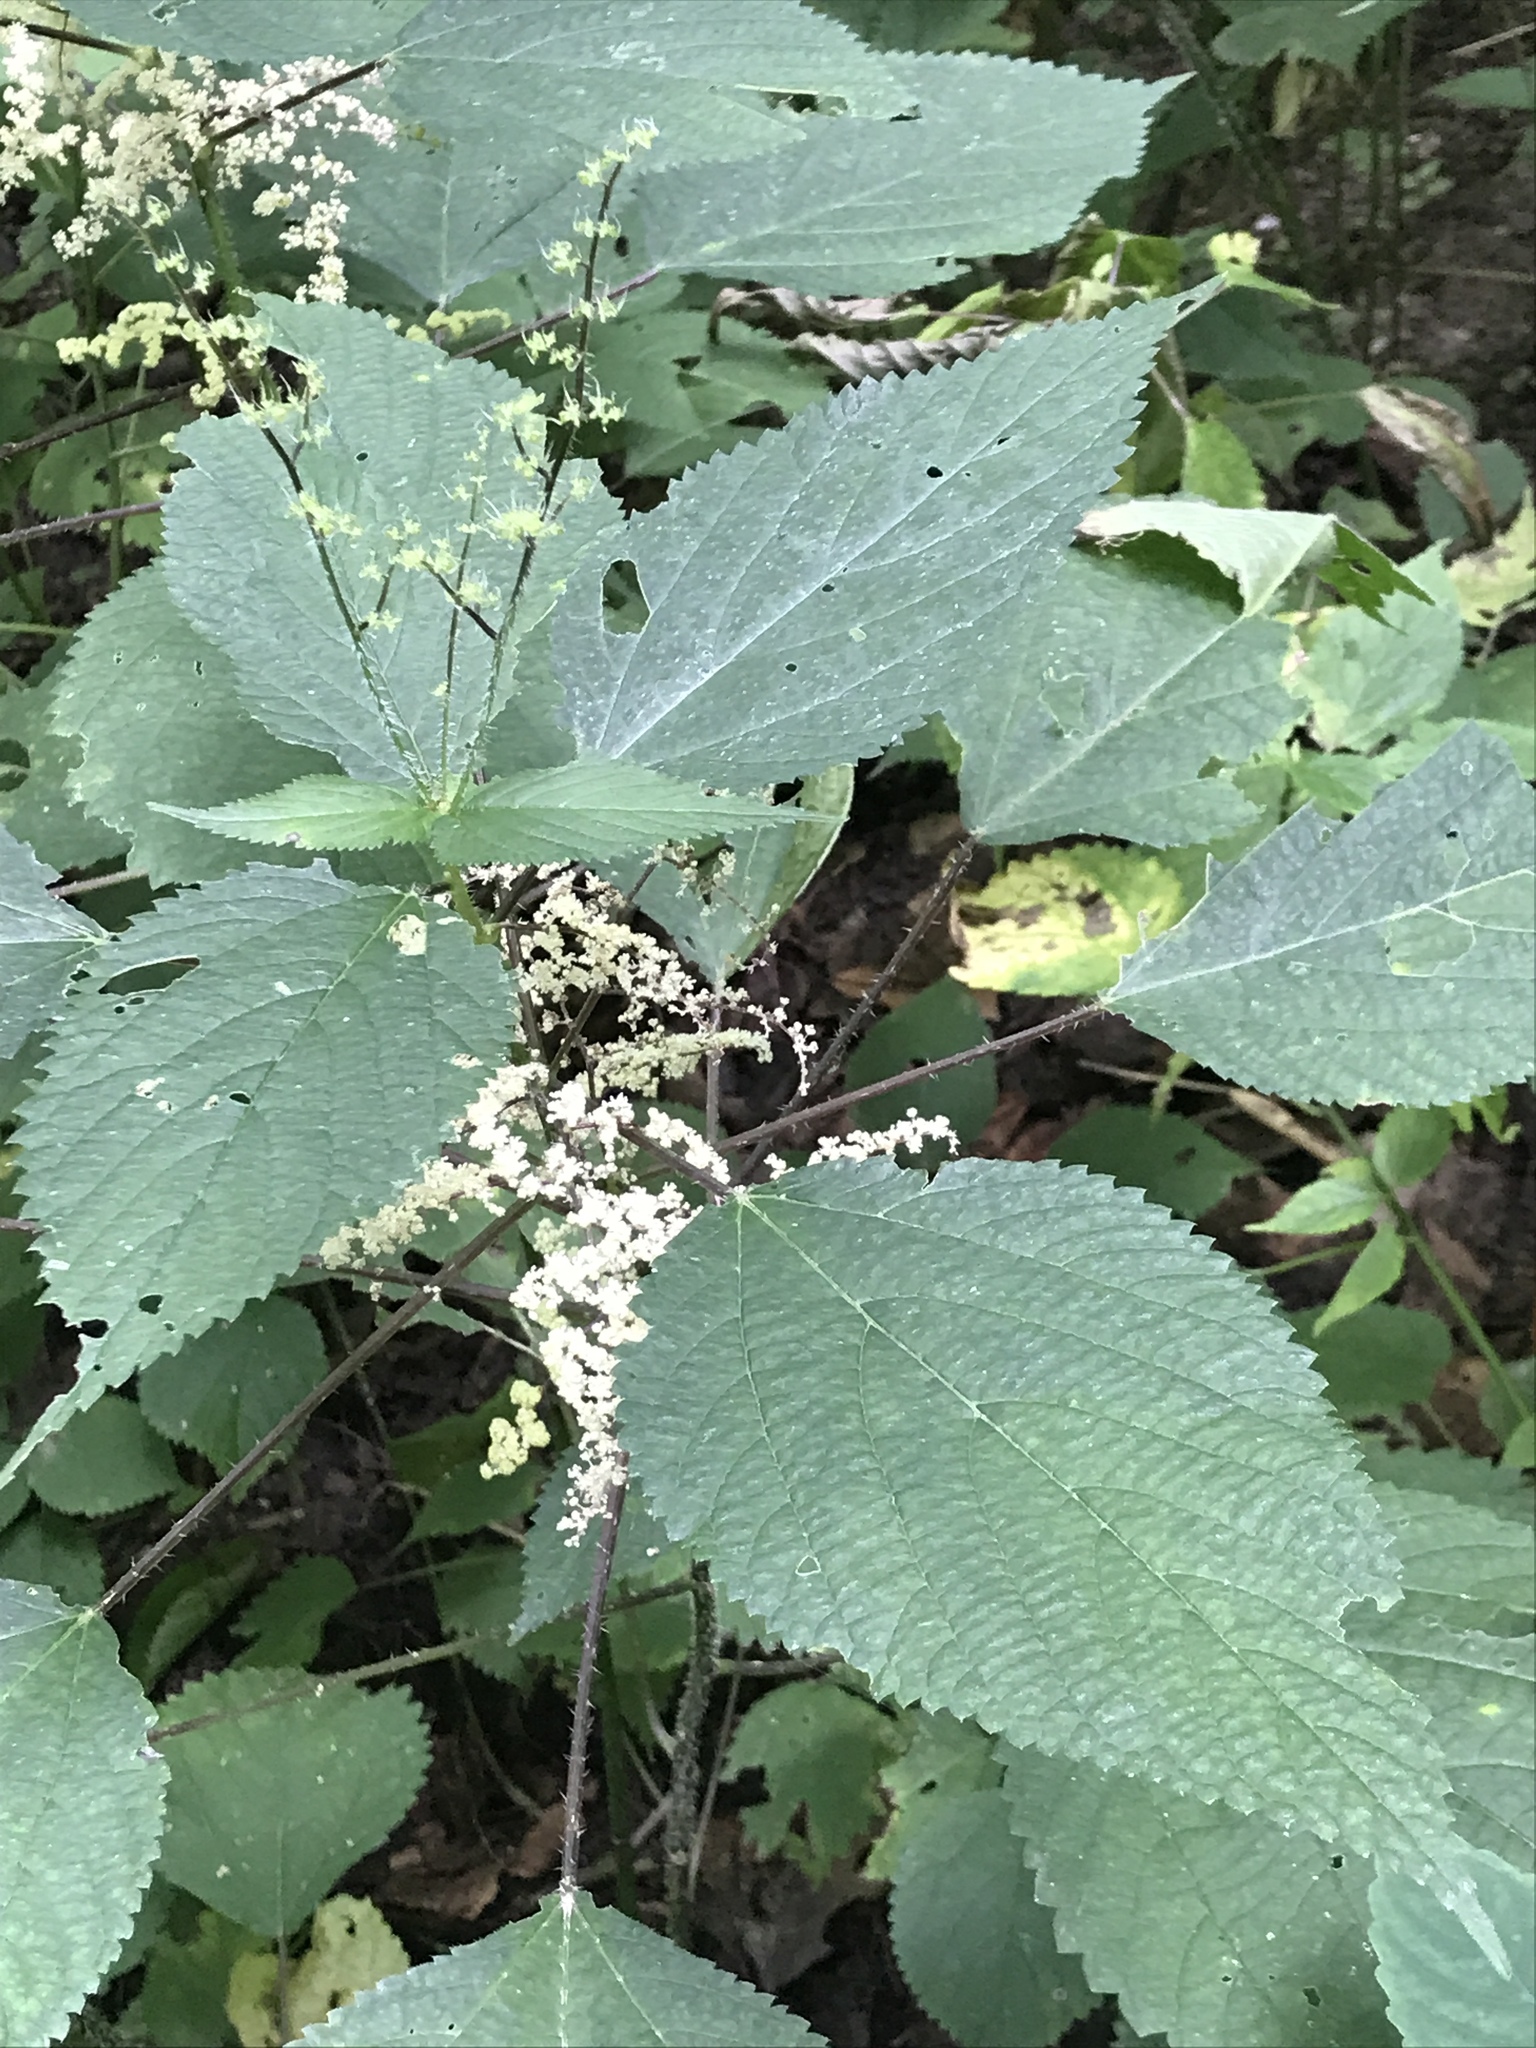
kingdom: Plantae
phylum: Tracheophyta
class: Magnoliopsida
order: Rosales
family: Urticaceae
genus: Laportea
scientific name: Laportea canadensis
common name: Canada nettle
